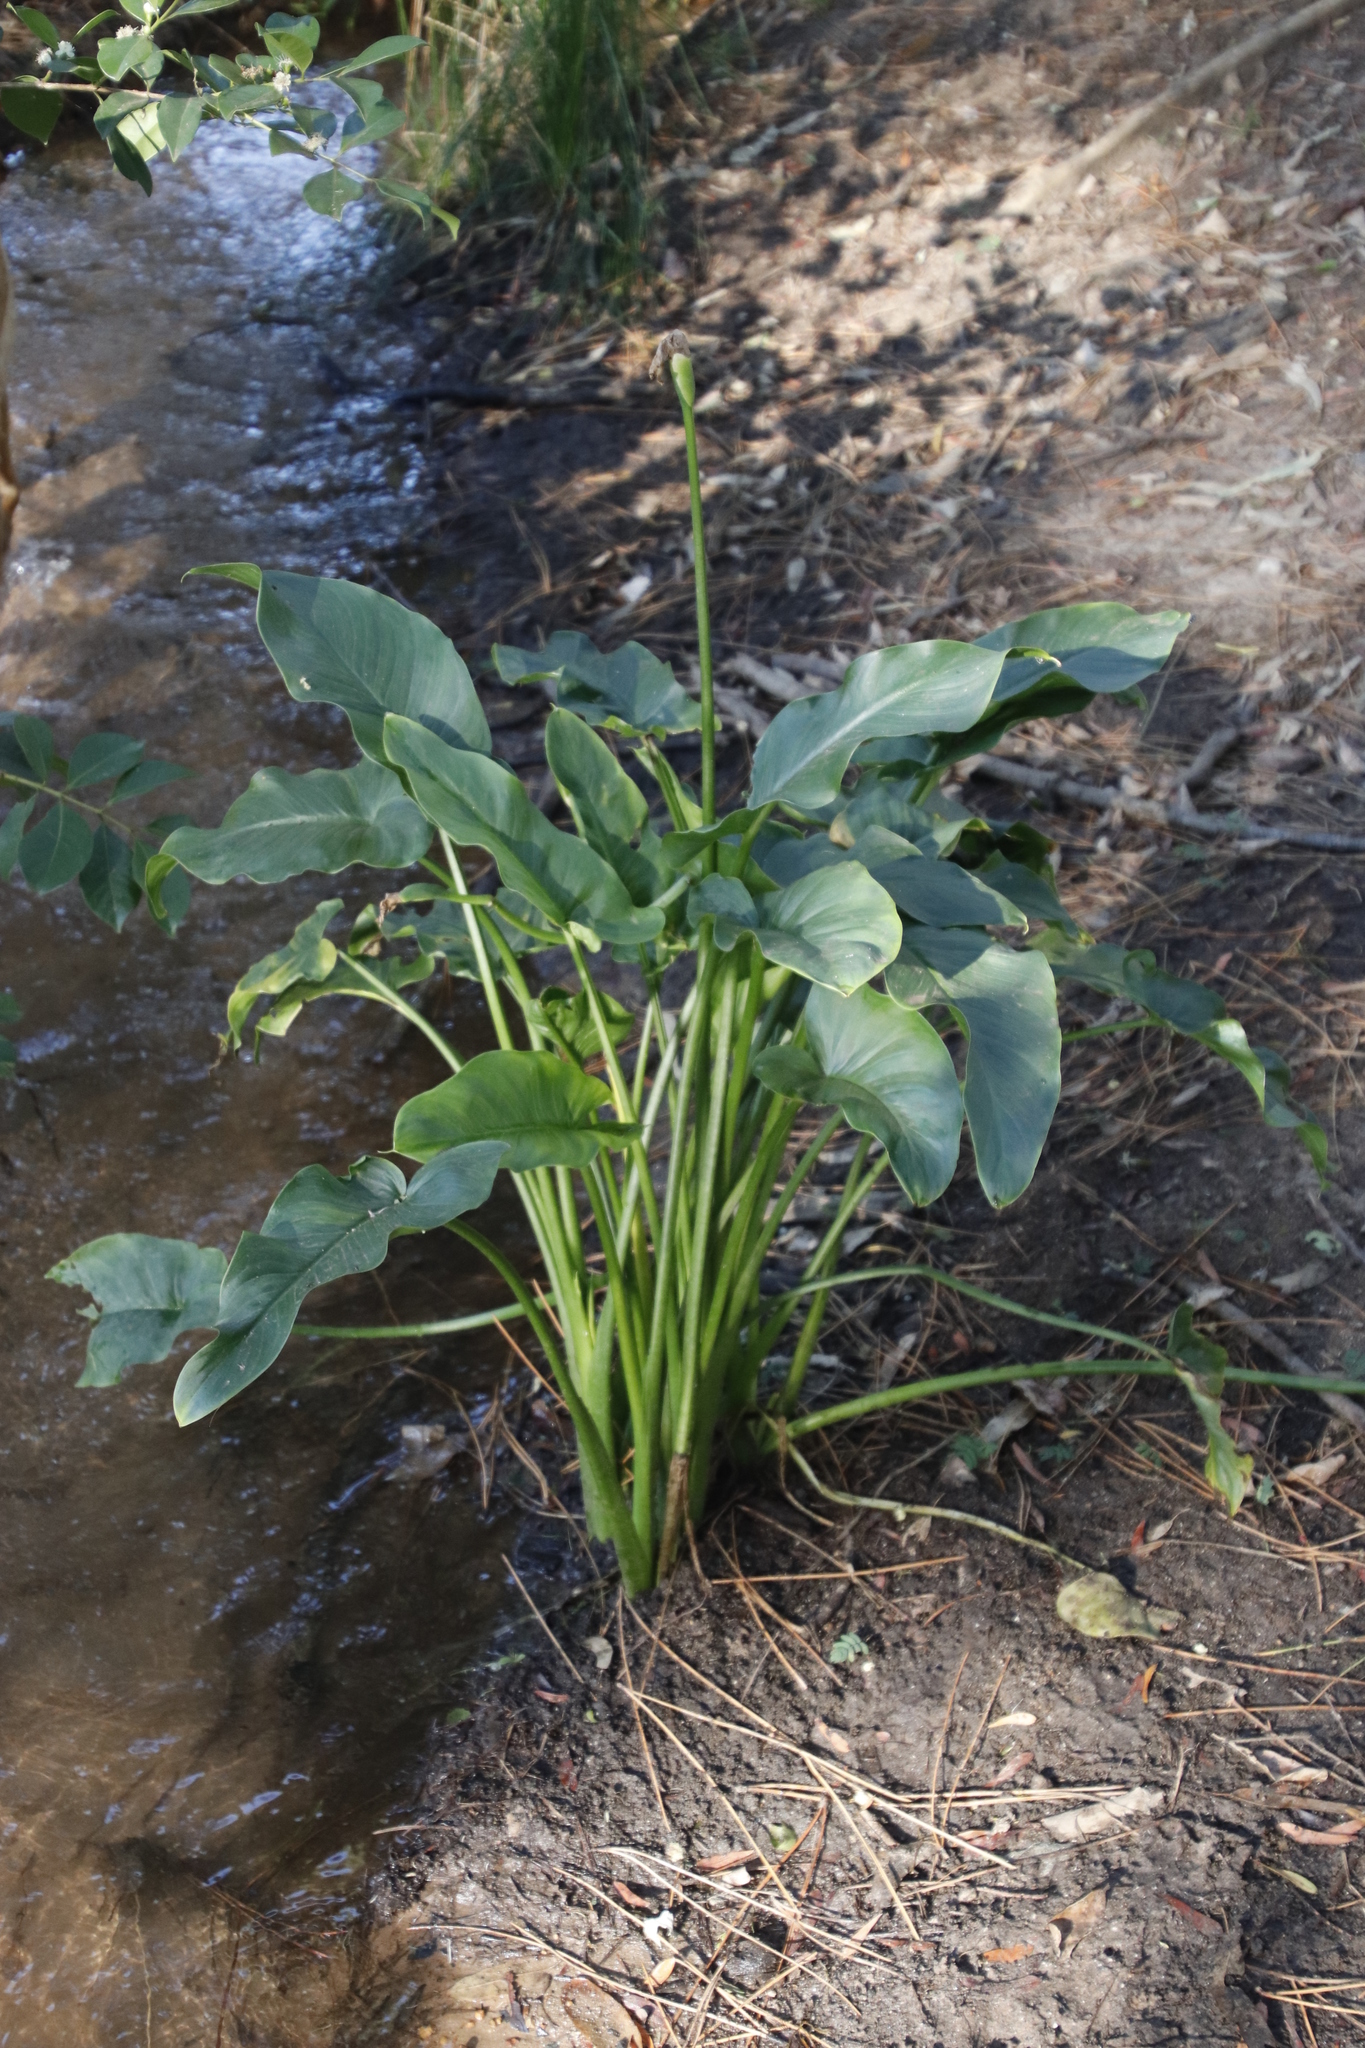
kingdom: Plantae
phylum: Tracheophyta
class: Liliopsida
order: Alismatales
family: Araceae
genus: Zantedeschia
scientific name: Zantedeschia aethiopica
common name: Altar-lily
